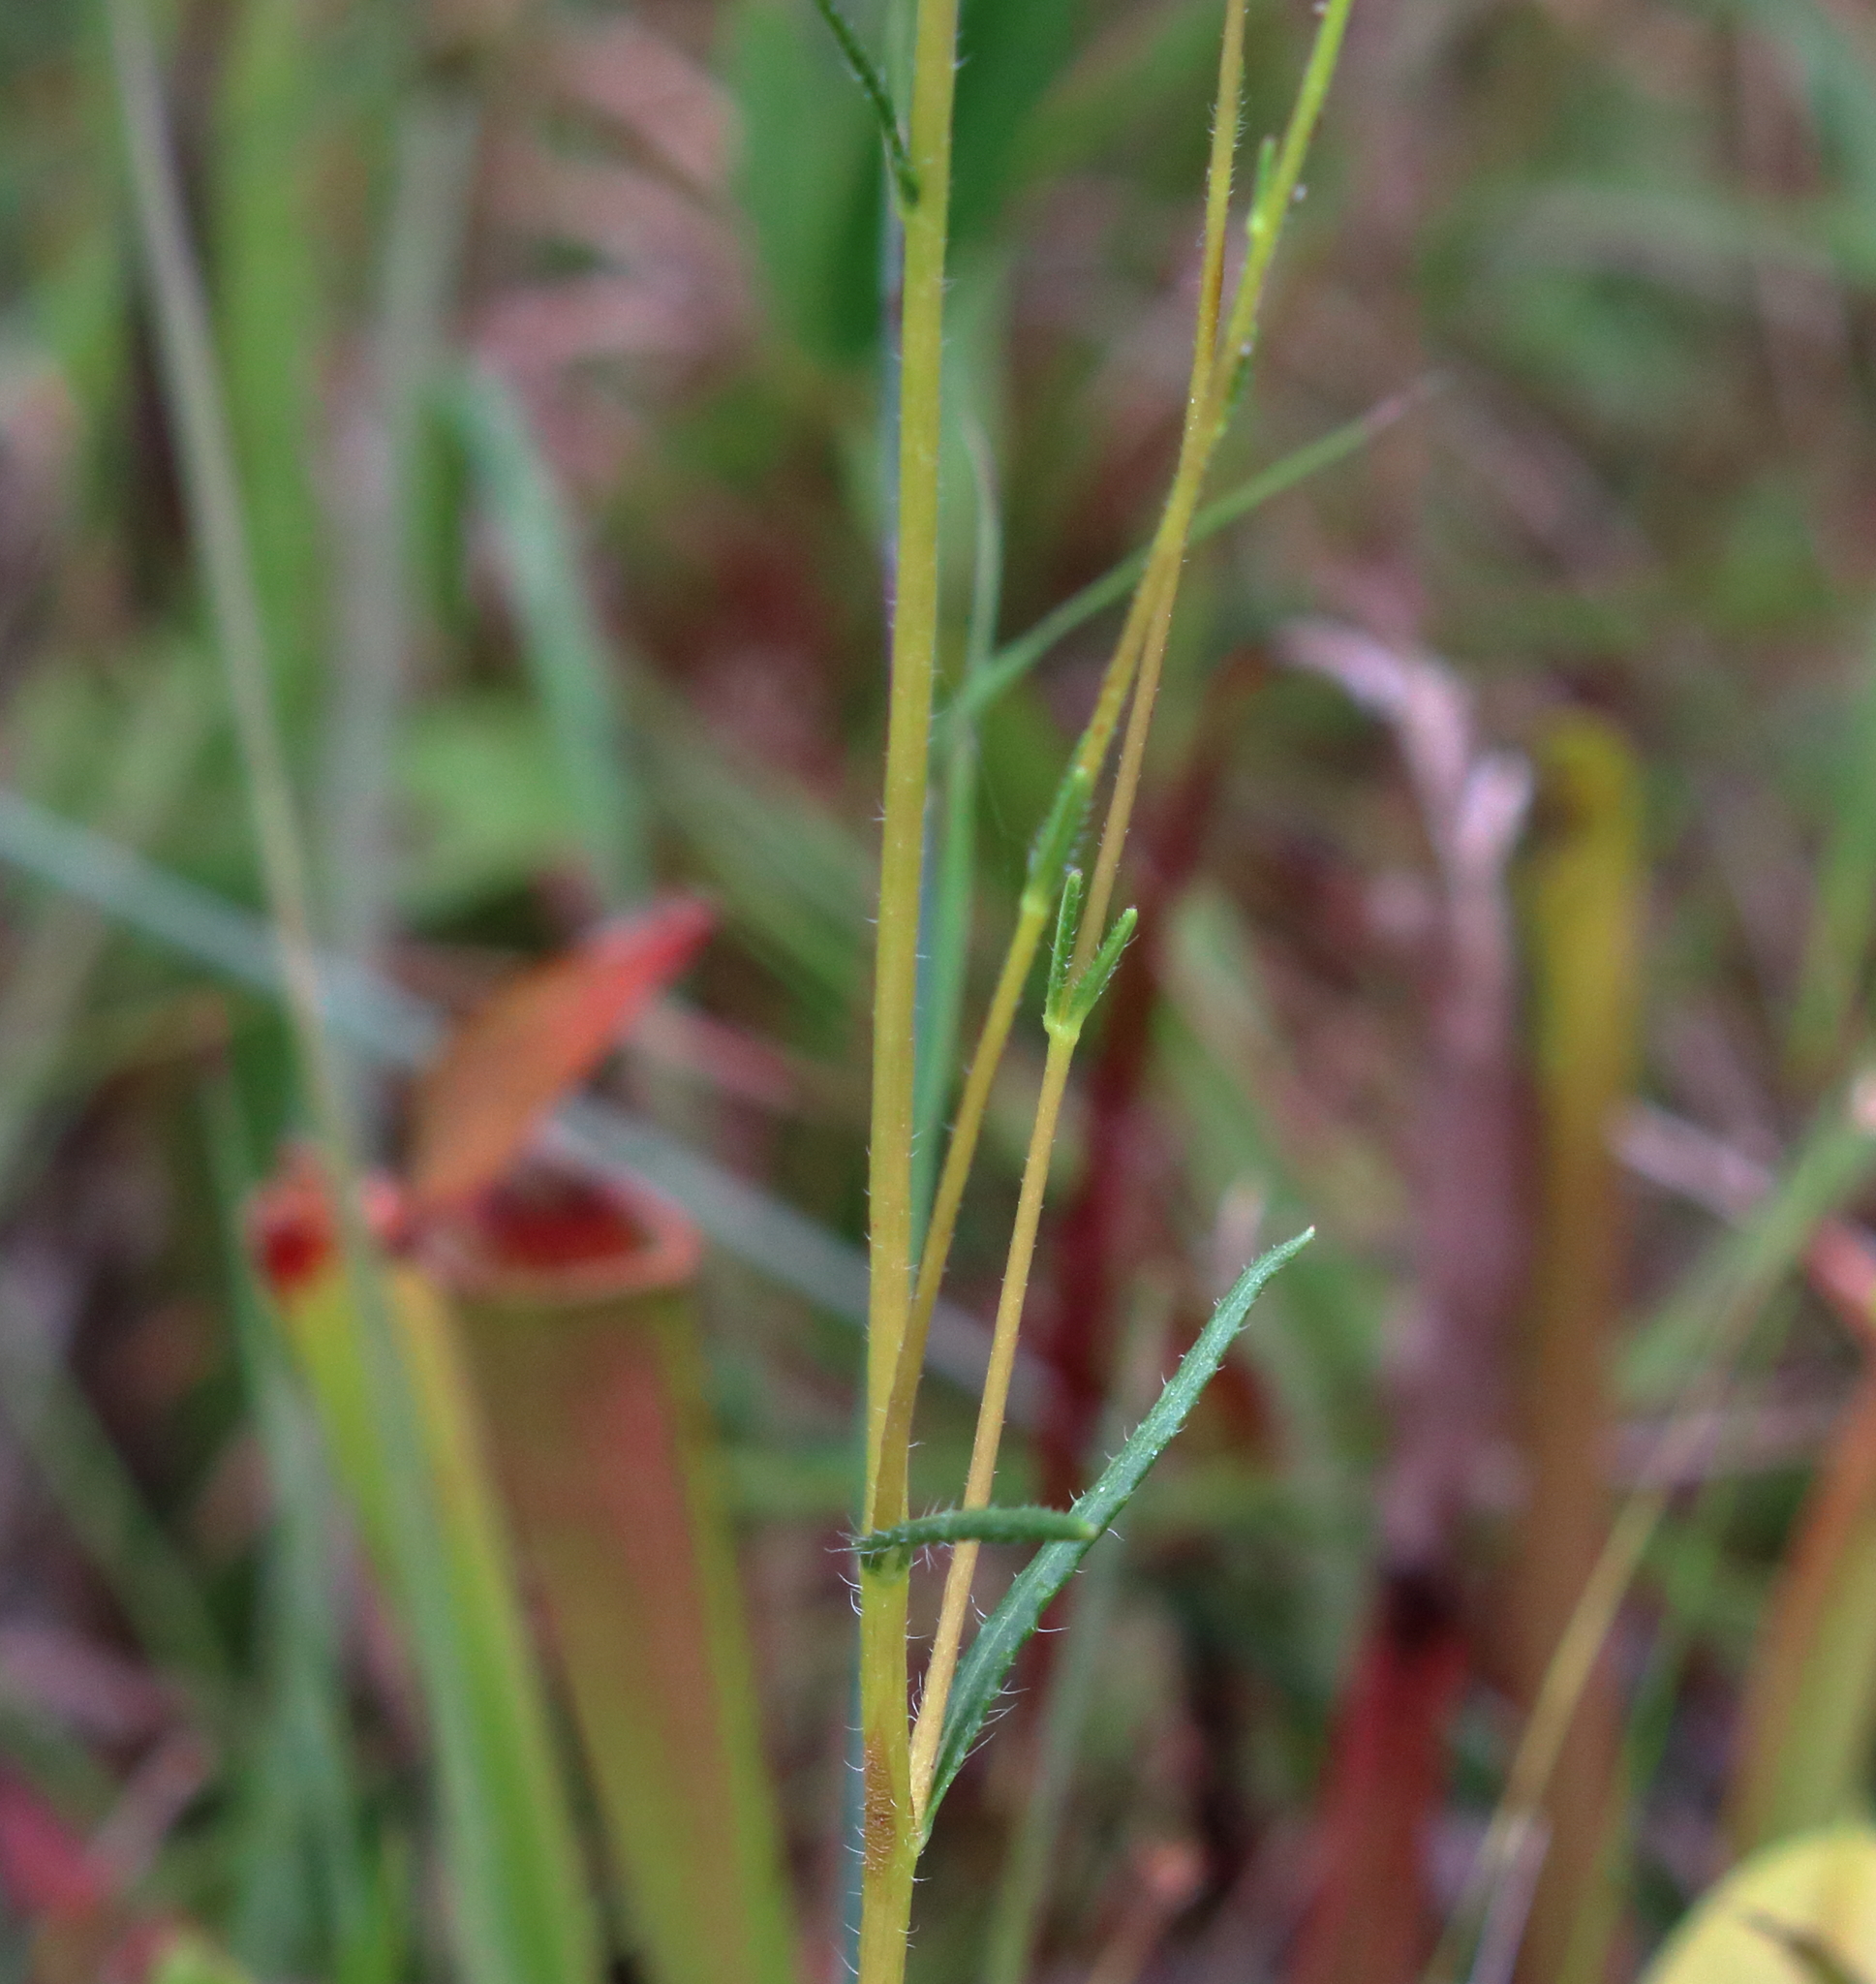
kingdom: Plantae
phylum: Tracheophyta
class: Magnoliopsida
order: Asterales
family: Asteraceae
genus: Helianthus
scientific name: Helianthus heterophyllus
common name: Wetland sunflower
